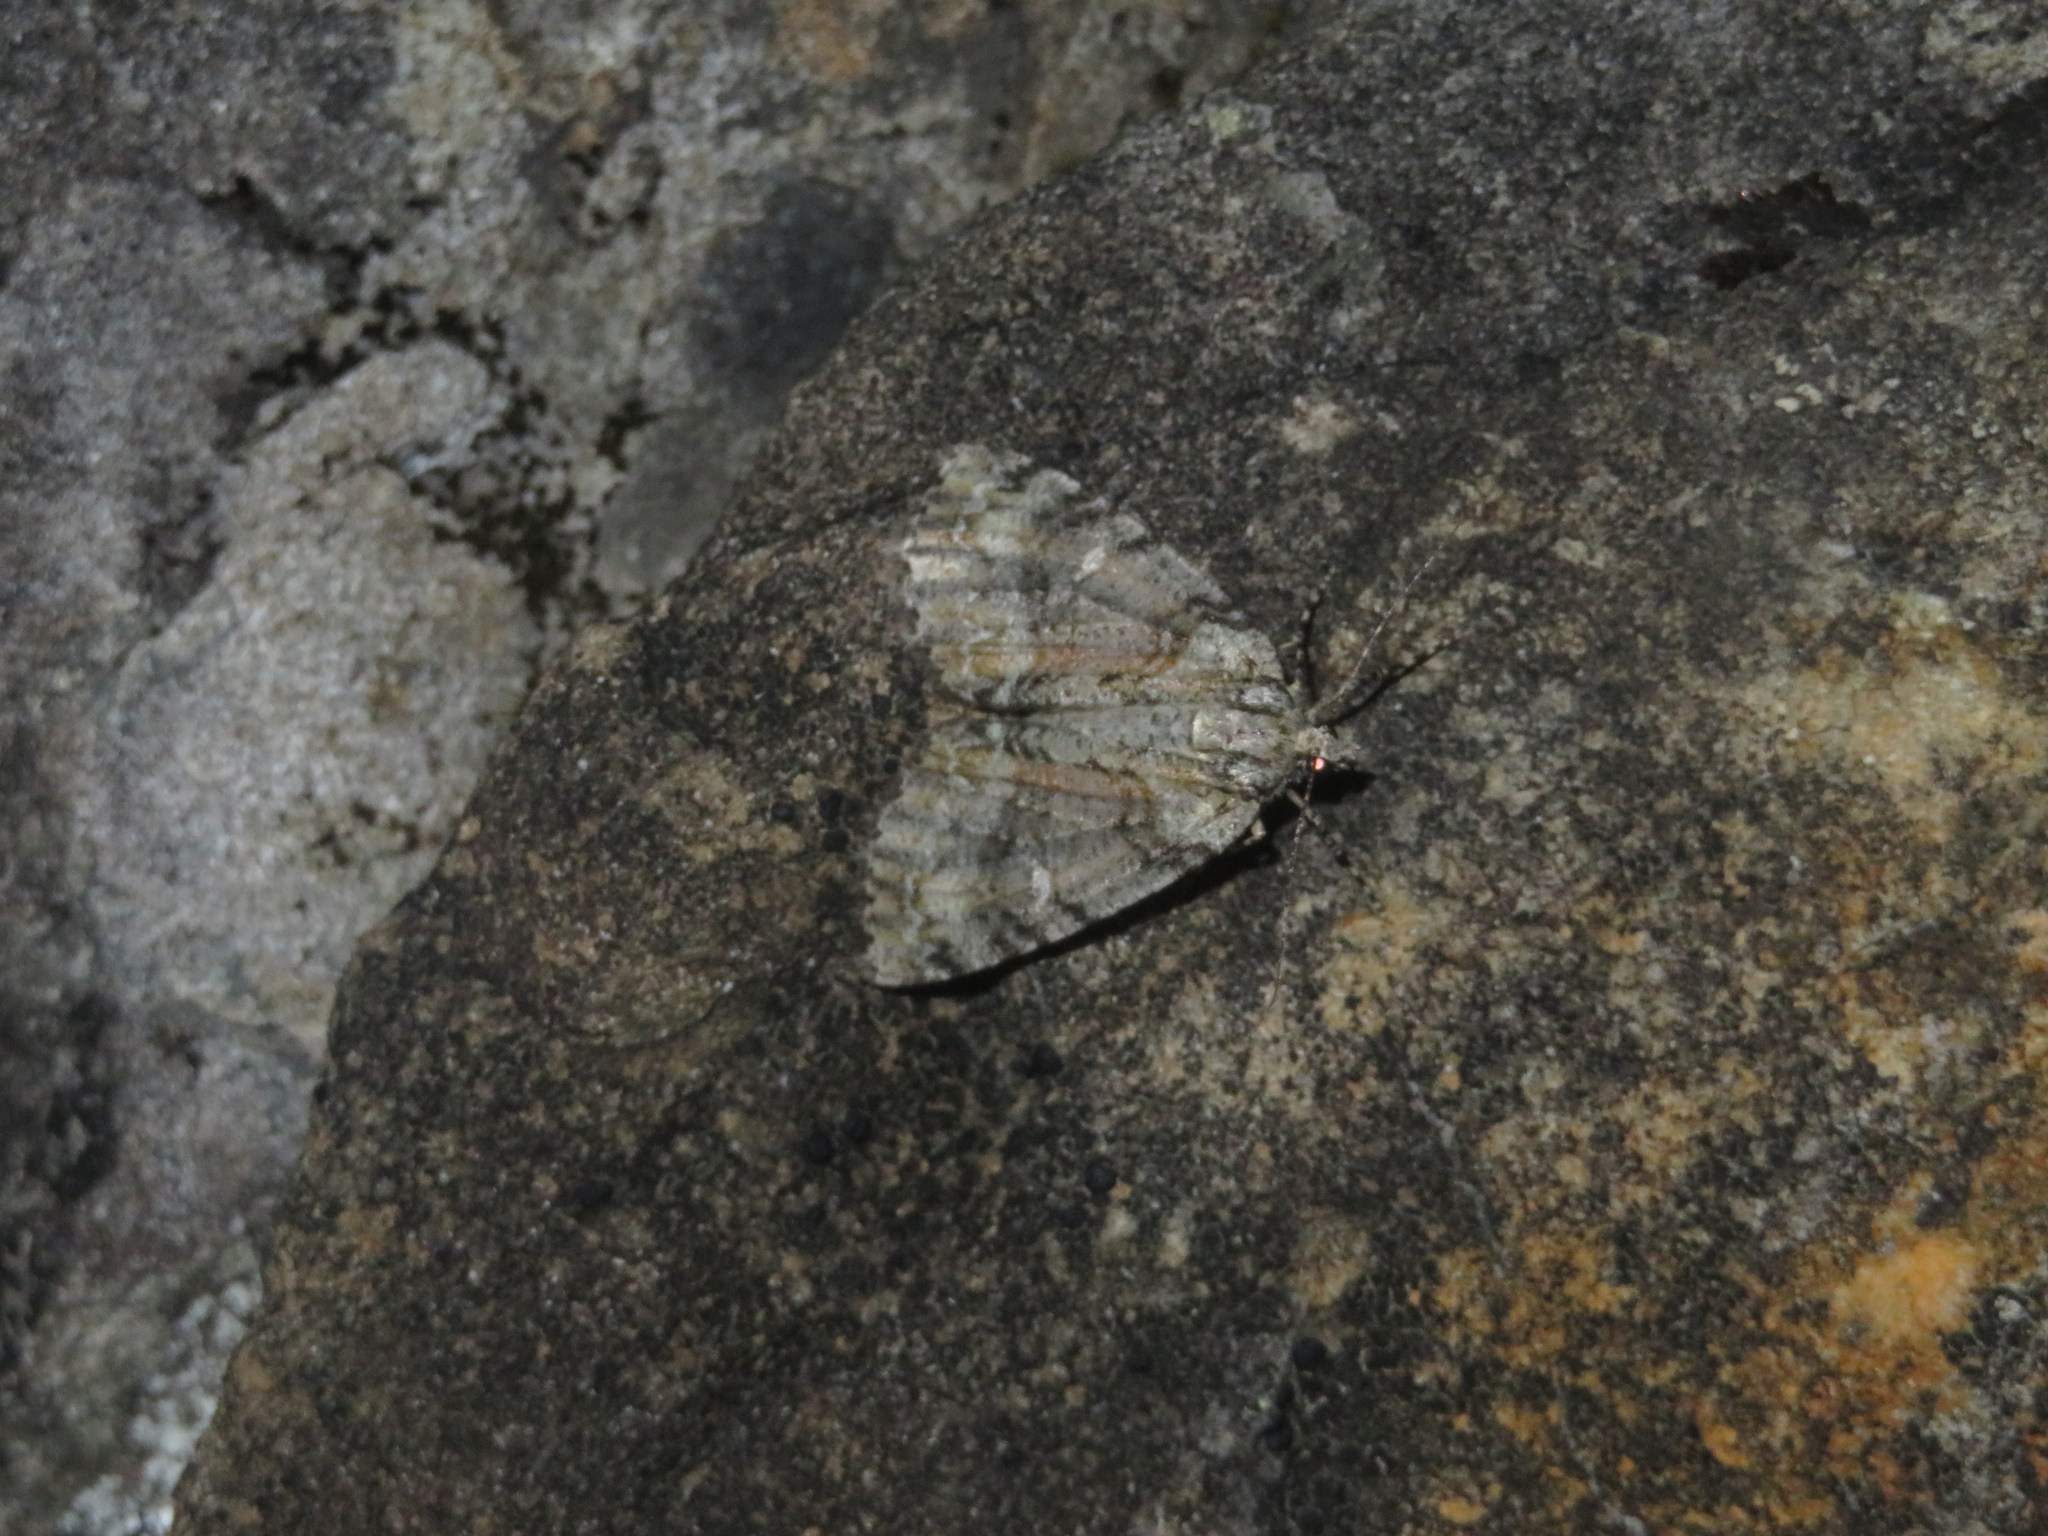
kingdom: Animalia
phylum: Arthropoda
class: Insecta
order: Lepidoptera
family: Geometridae
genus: Pseudocoremia
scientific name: Pseudocoremia suavis
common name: Common forest looper
